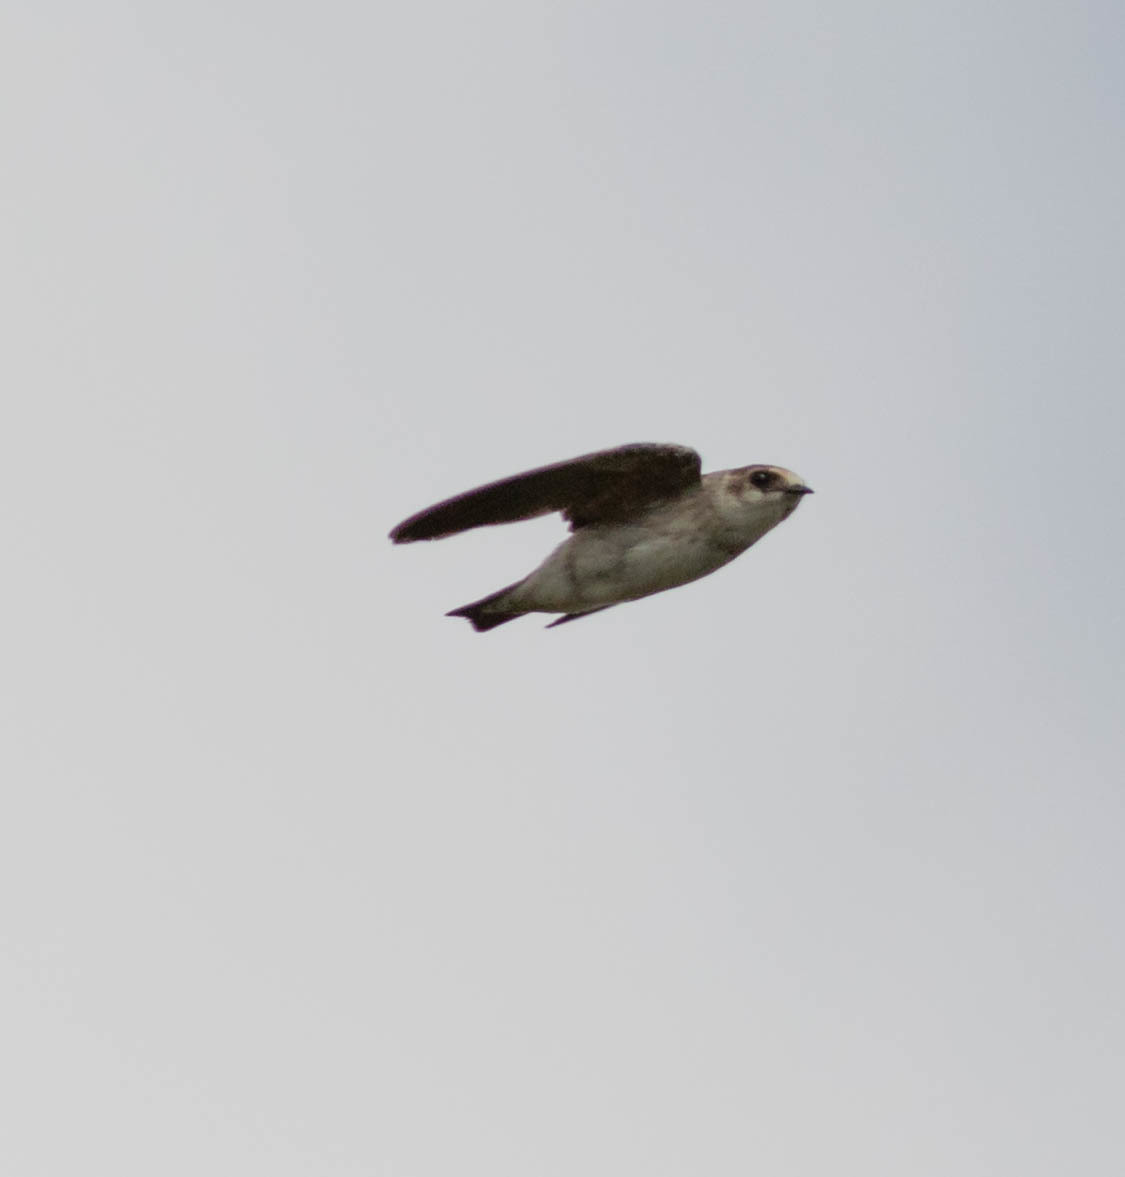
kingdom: Animalia
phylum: Chordata
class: Aves
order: Passeriformes
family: Hirundinidae
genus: Petrochelidon
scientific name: Petrochelidon fulva
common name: Cave swallow
